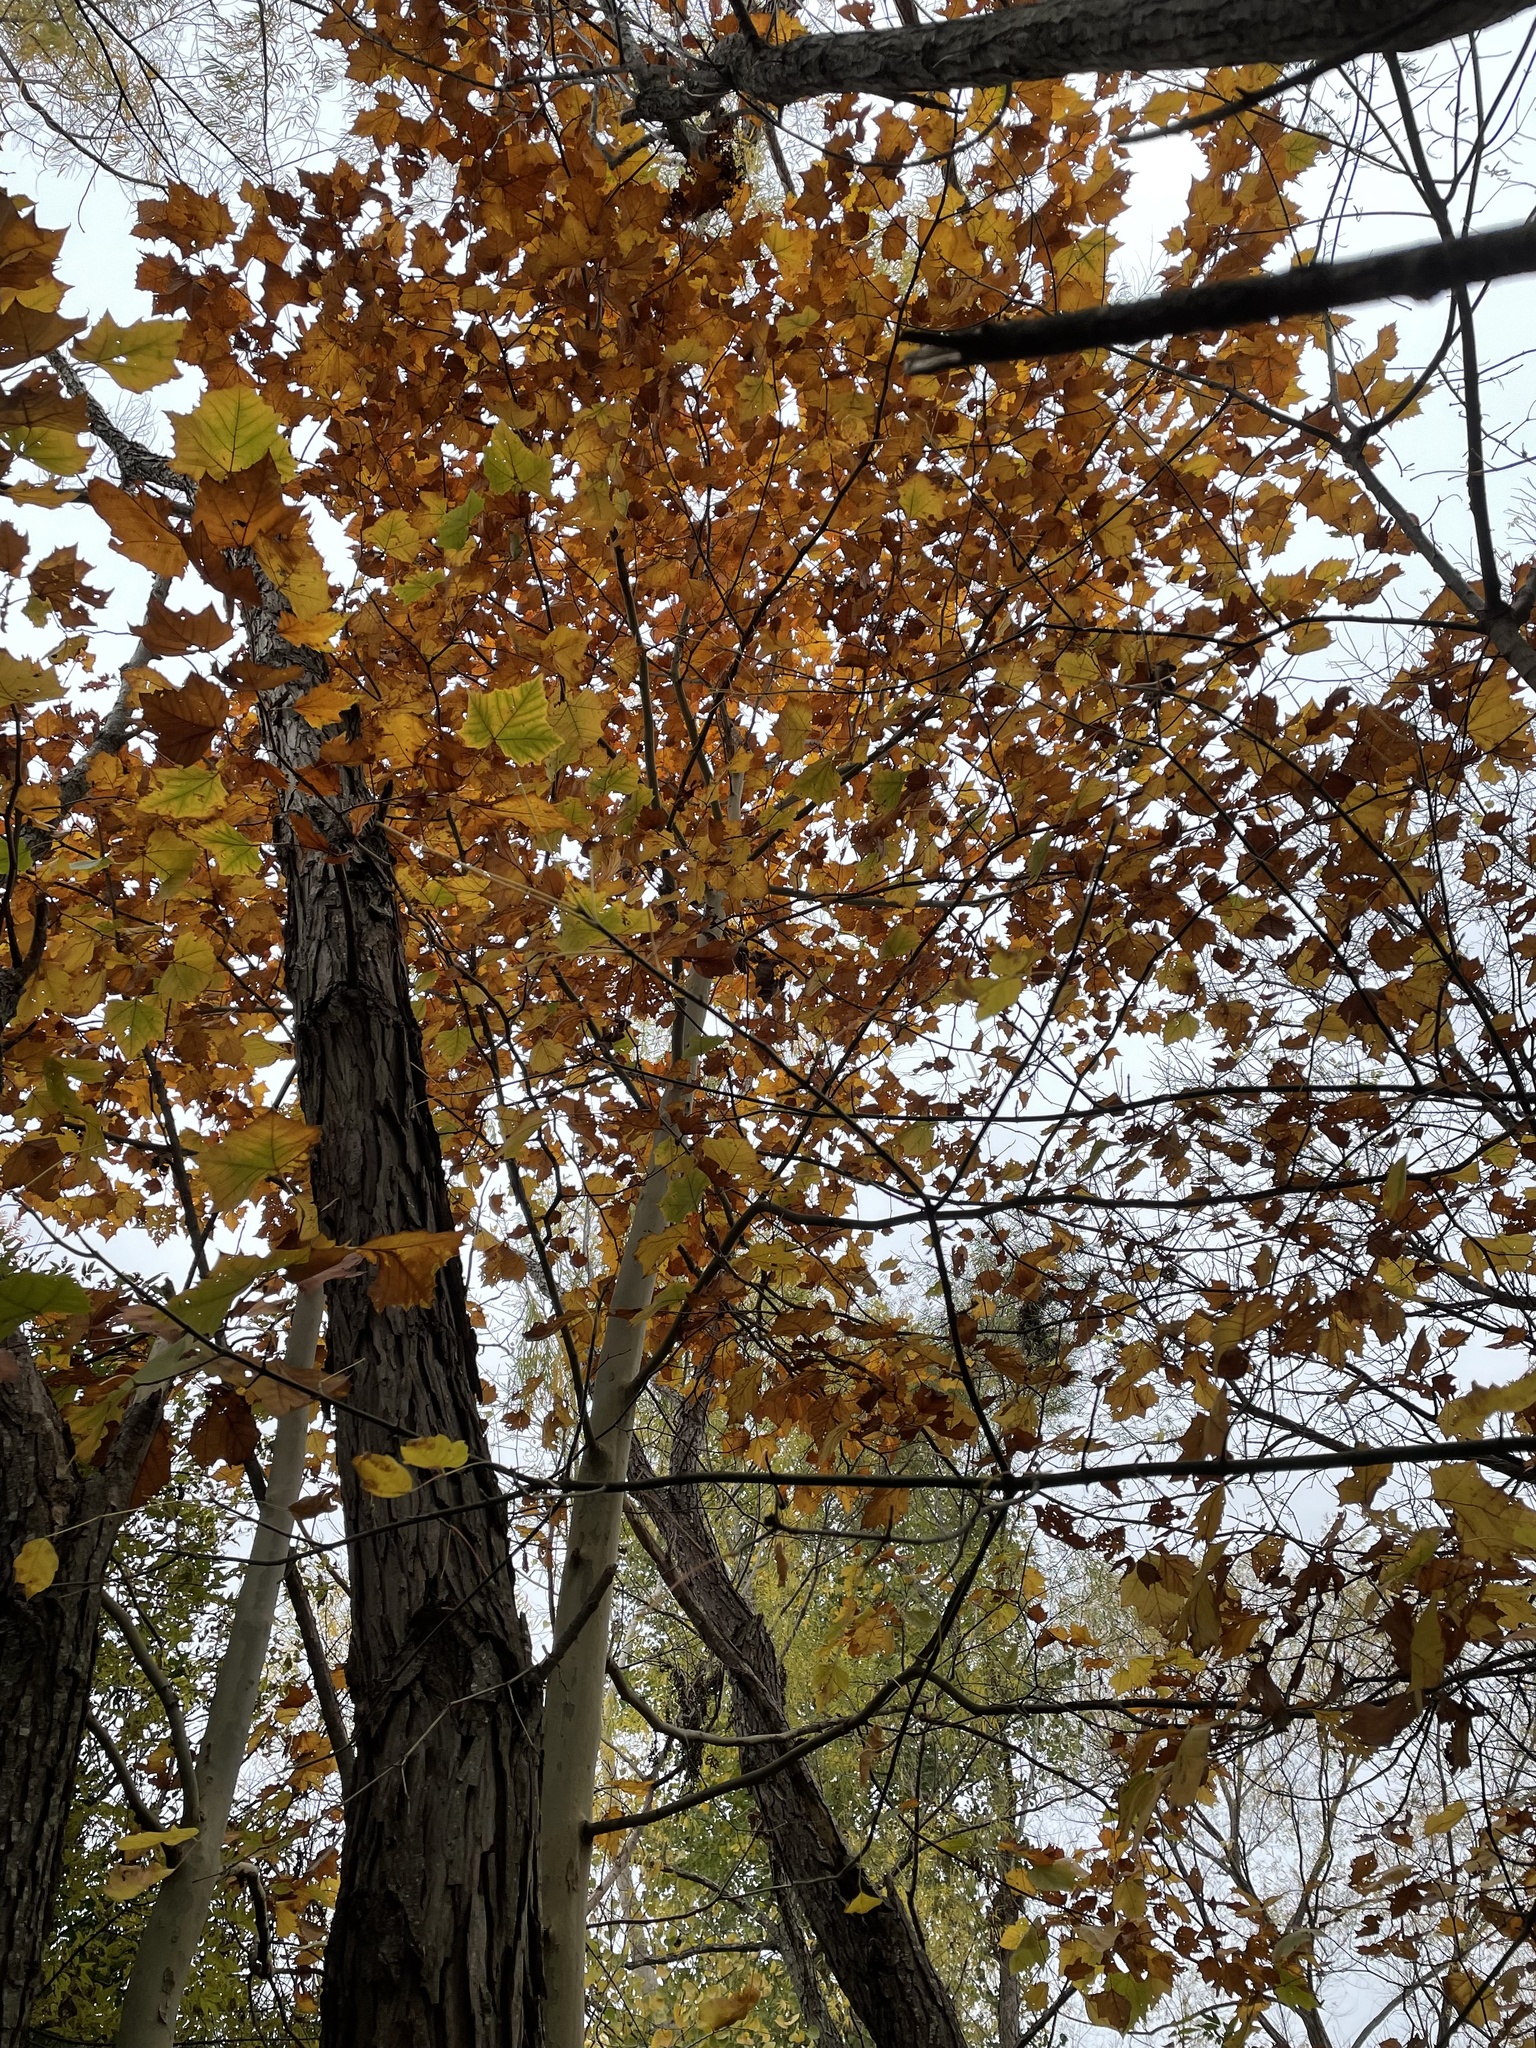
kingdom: Plantae
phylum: Tracheophyta
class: Magnoliopsida
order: Proteales
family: Platanaceae
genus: Platanus
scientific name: Platanus occidentalis
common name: American sycamore
